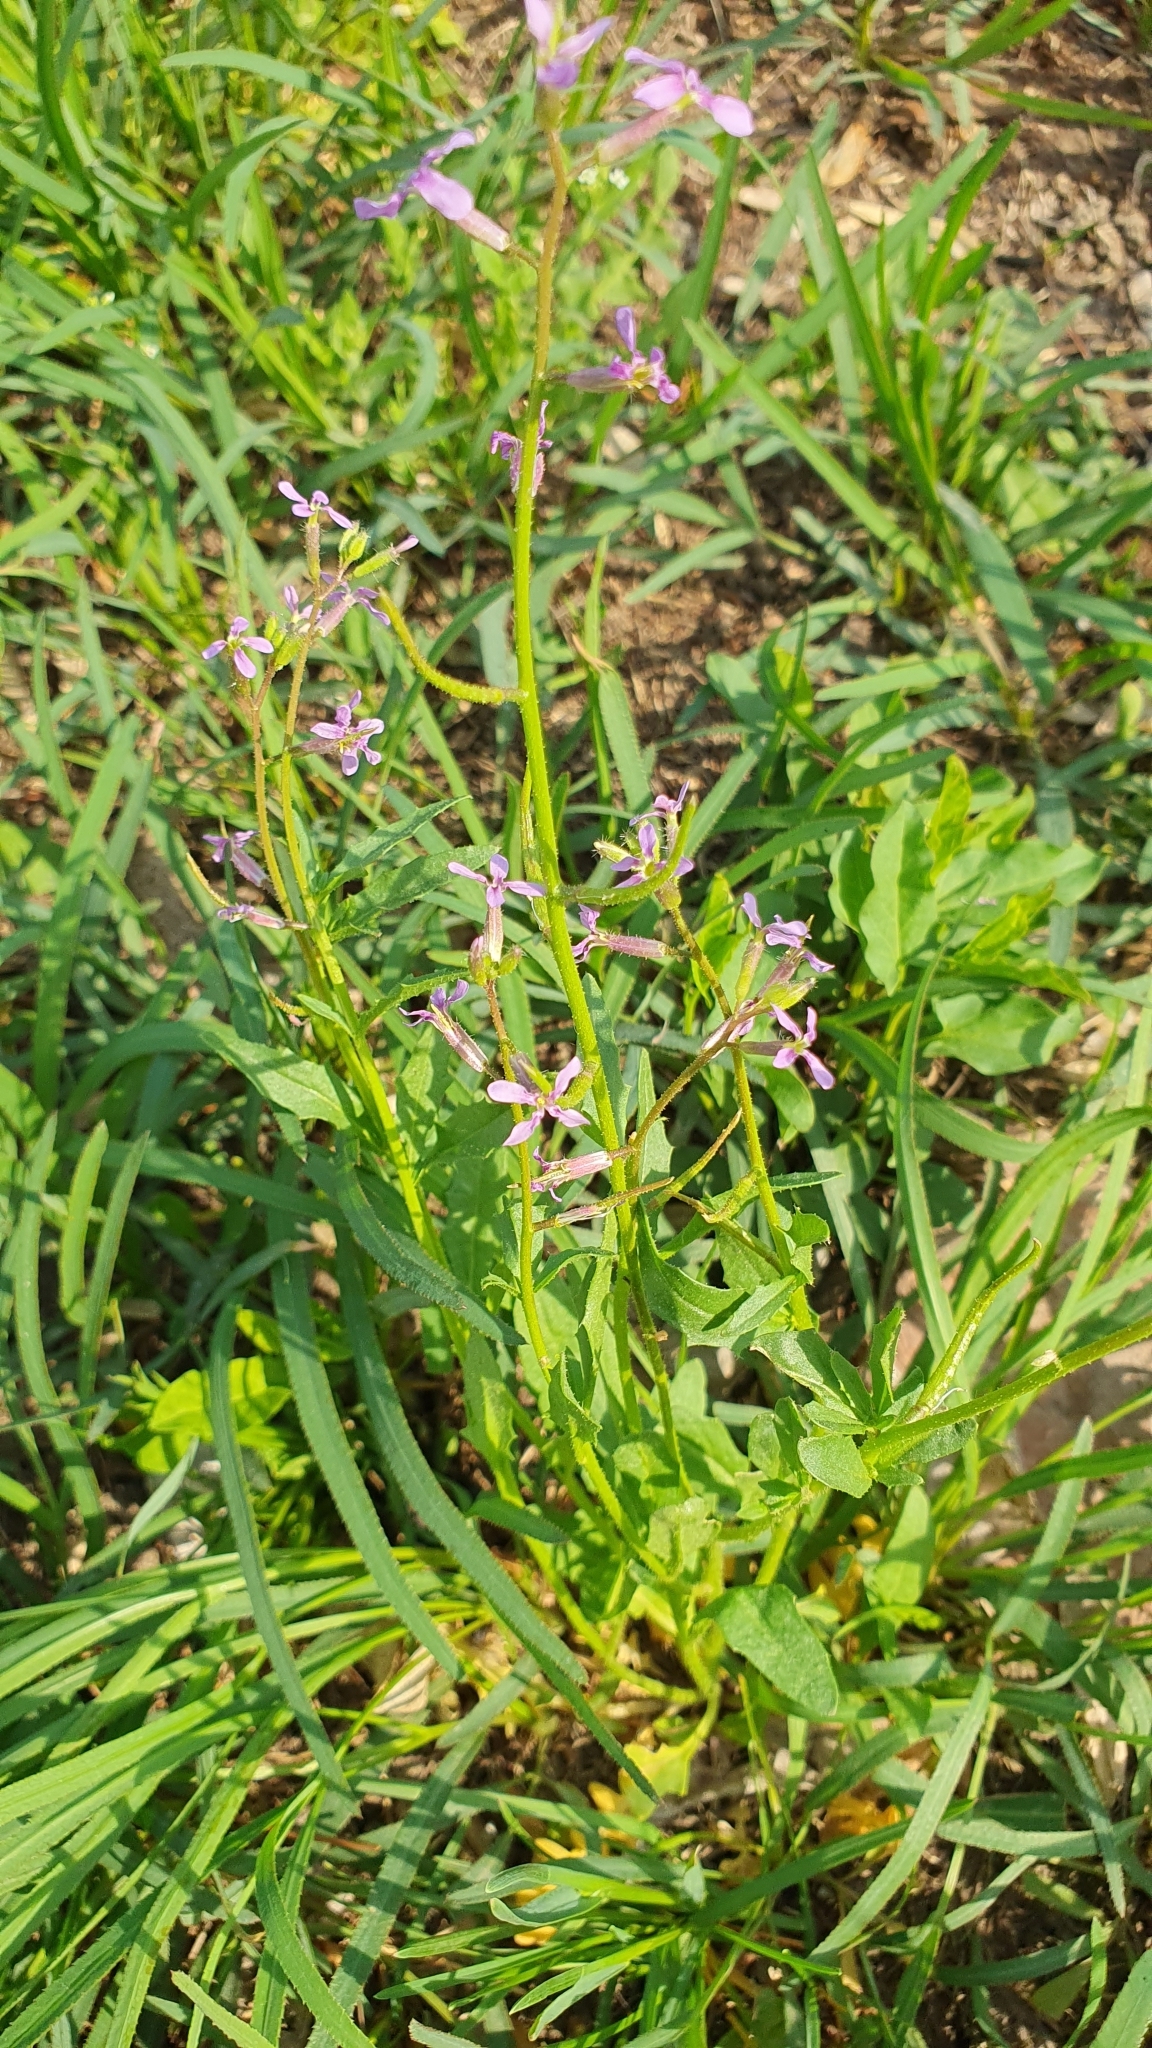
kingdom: Plantae
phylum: Tracheophyta
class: Magnoliopsida
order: Brassicales
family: Brassicaceae
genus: Chorispora
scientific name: Chorispora tenella
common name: Crossflower
